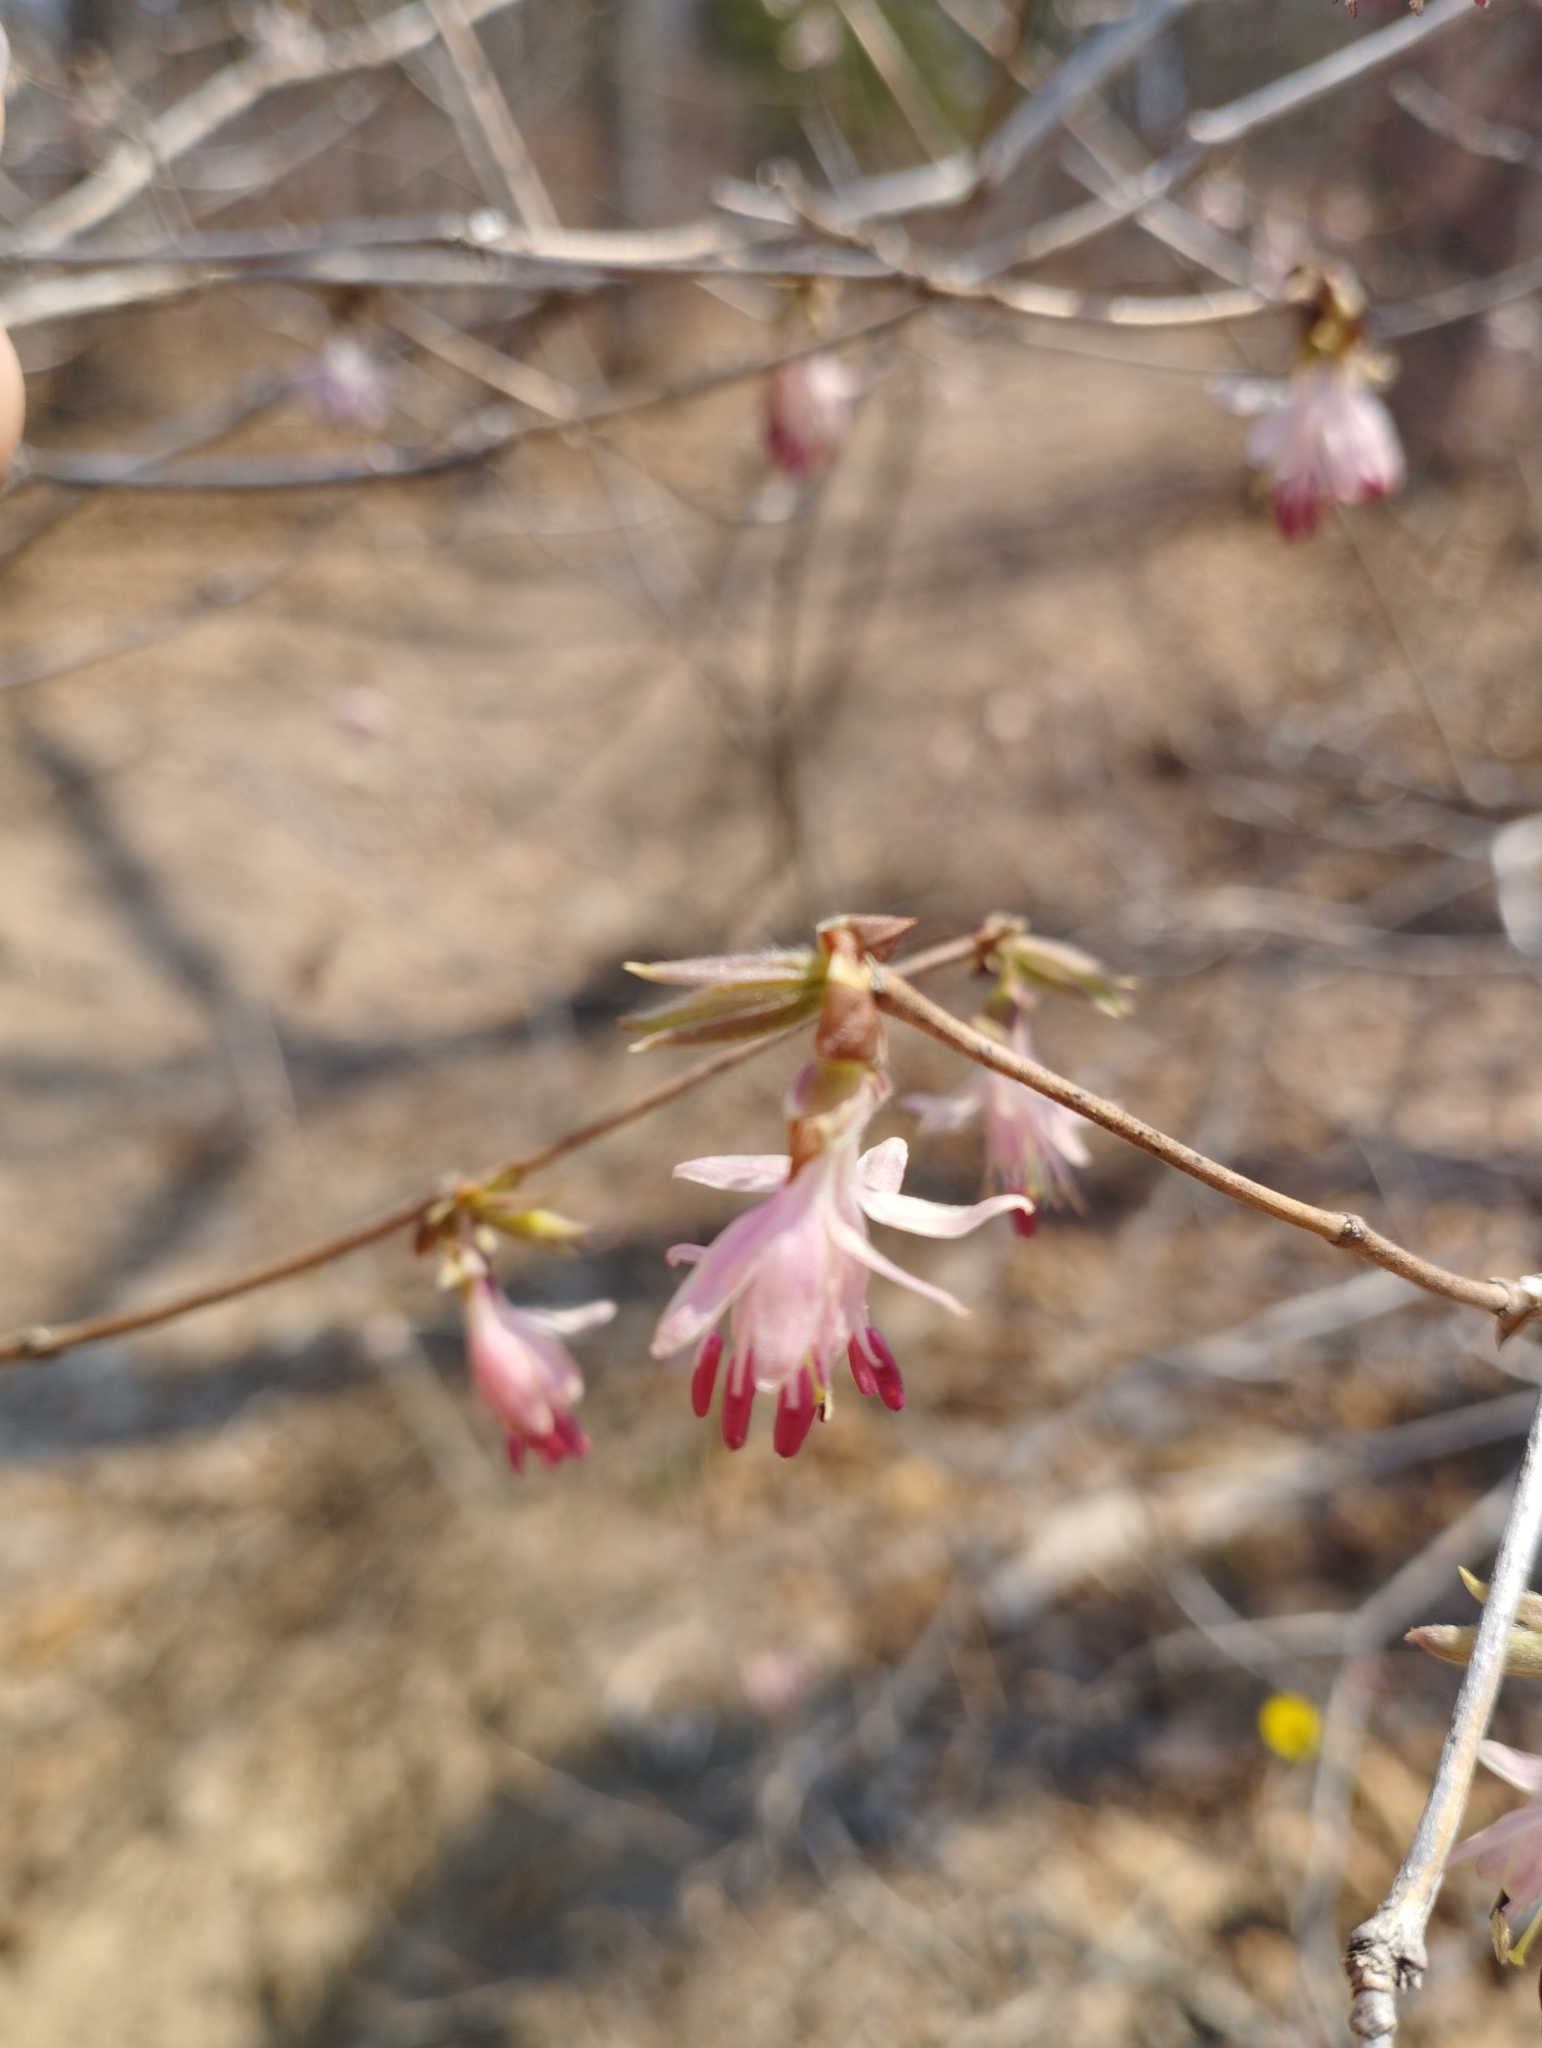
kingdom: Plantae
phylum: Tracheophyta
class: Magnoliopsida
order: Dipsacales
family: Caprifoliaceae
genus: Lonicera
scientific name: Lonicera praeflorens
